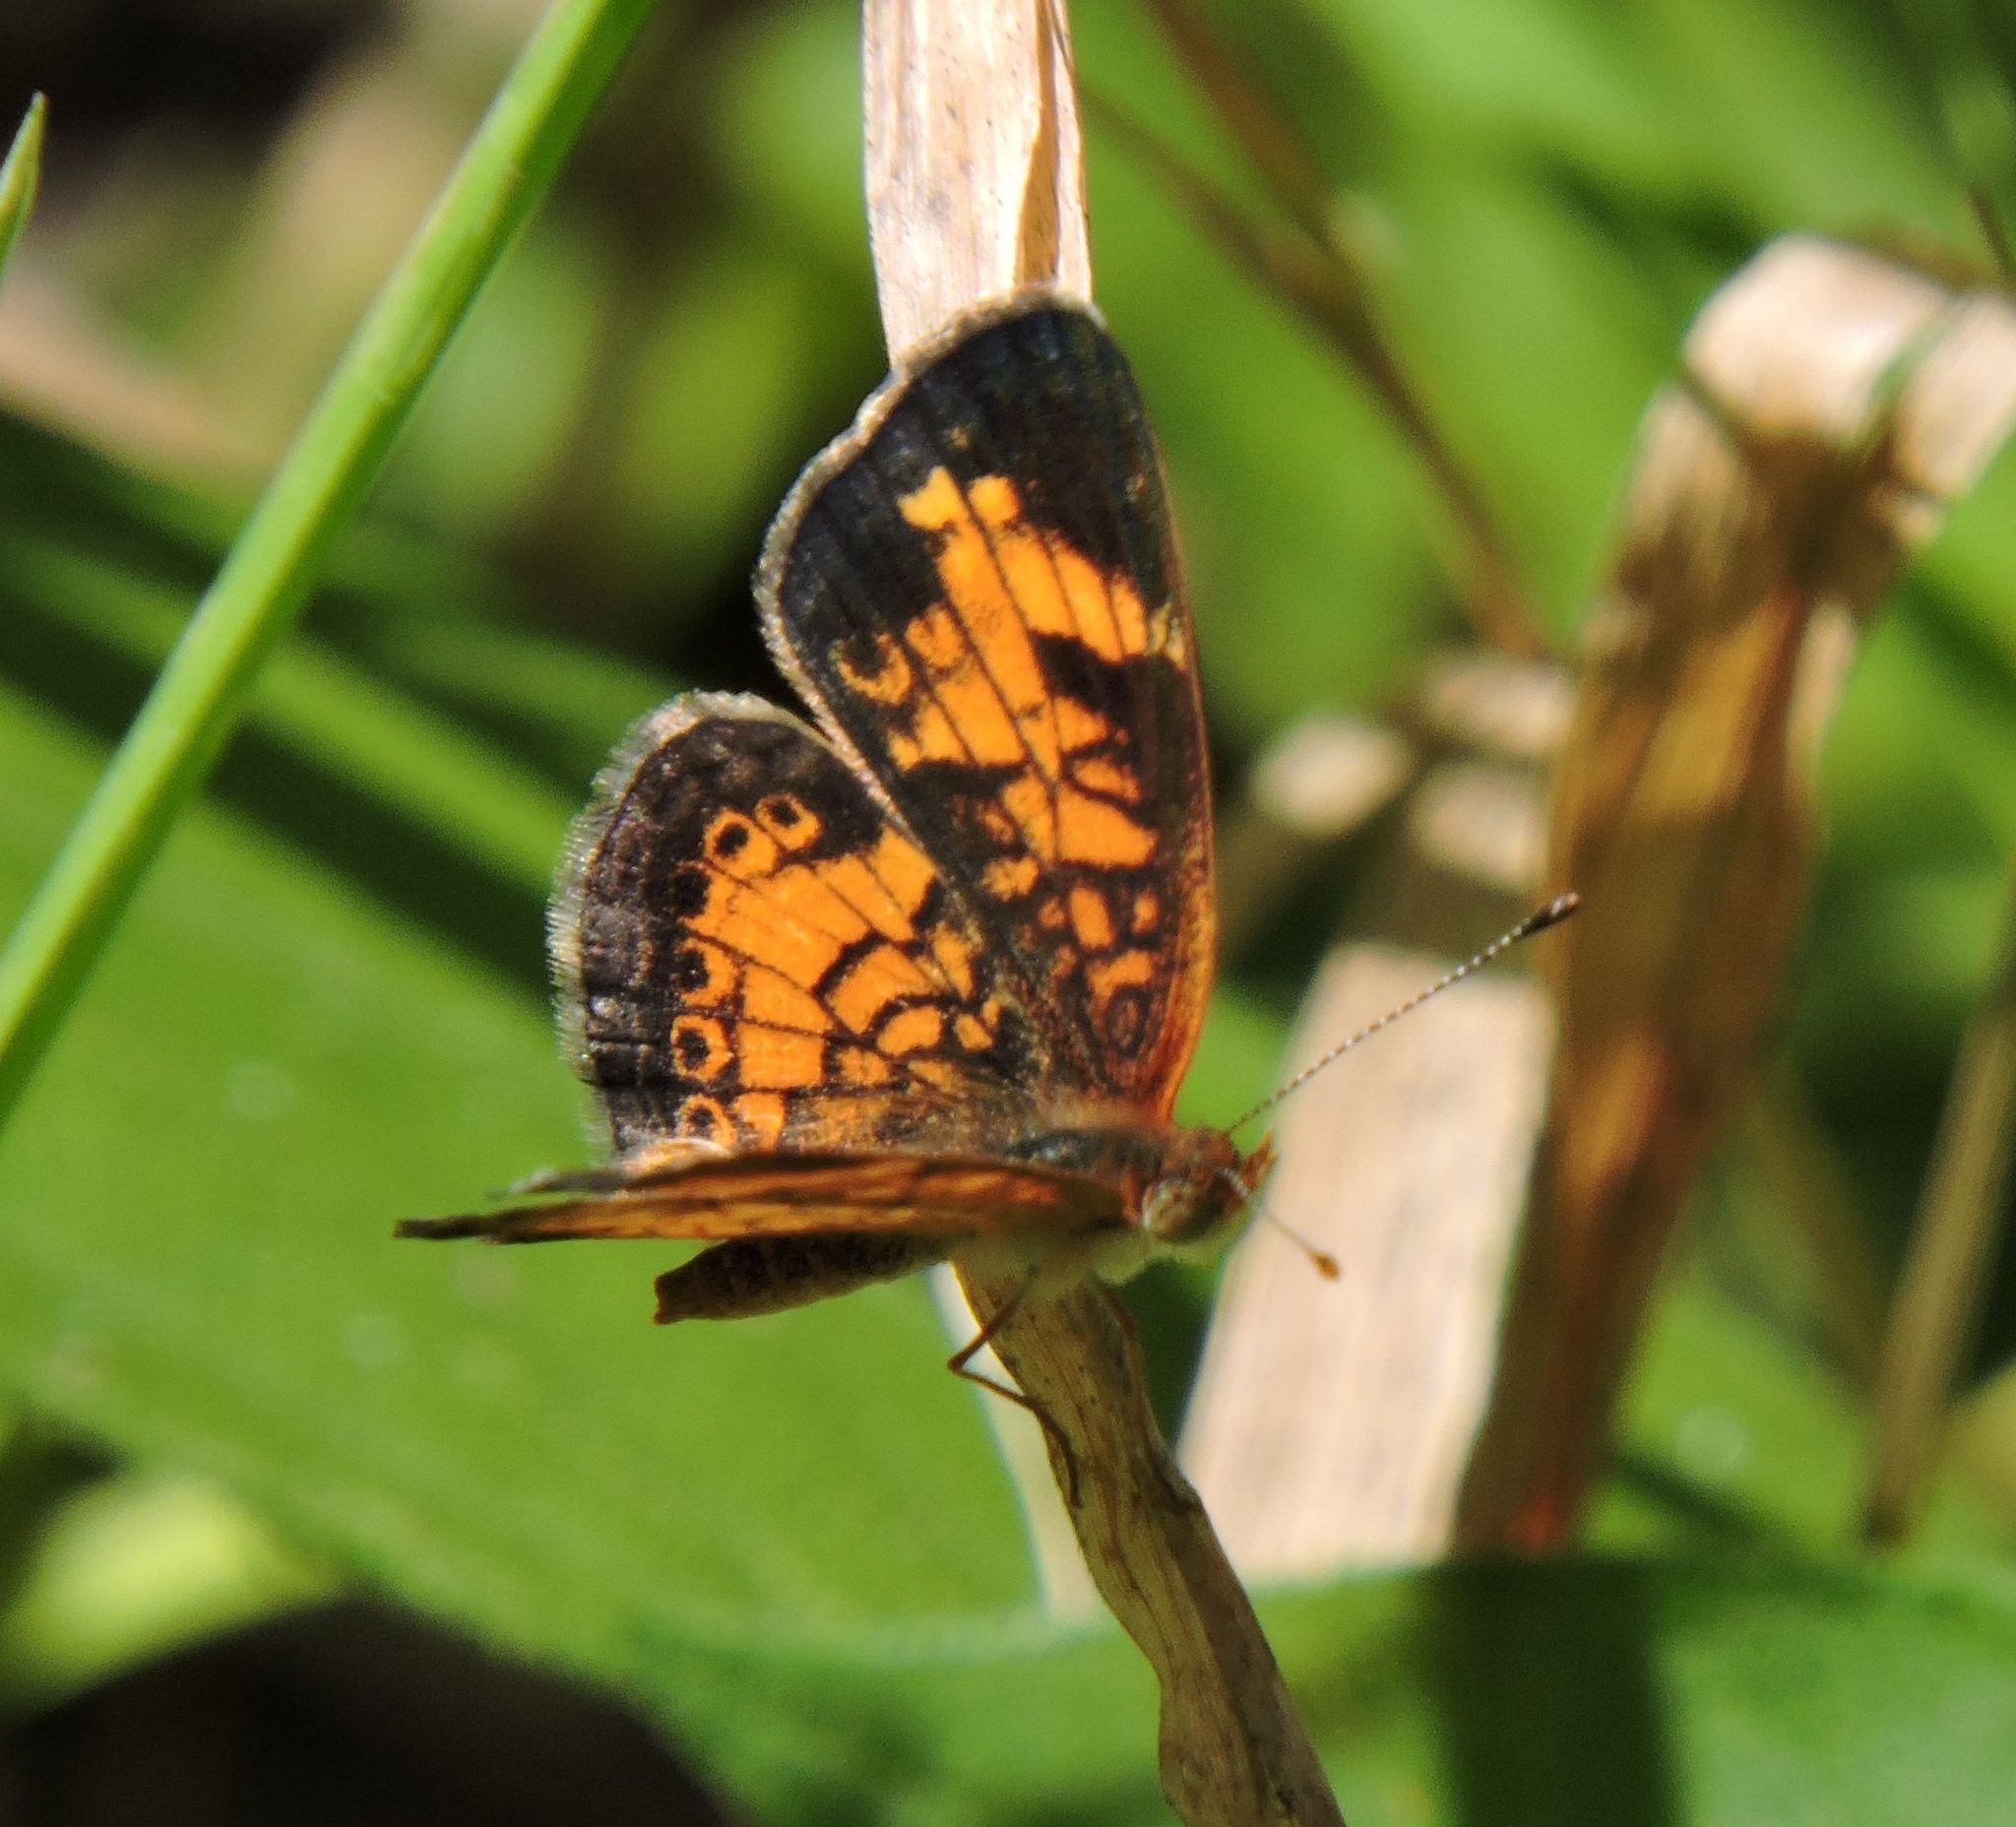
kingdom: Animalia
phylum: Arthropoda
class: Insecta
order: Lepidoptera
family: Nymphalidae
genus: Phyciodes
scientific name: Phyciodes tharos
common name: Pearl crescent
